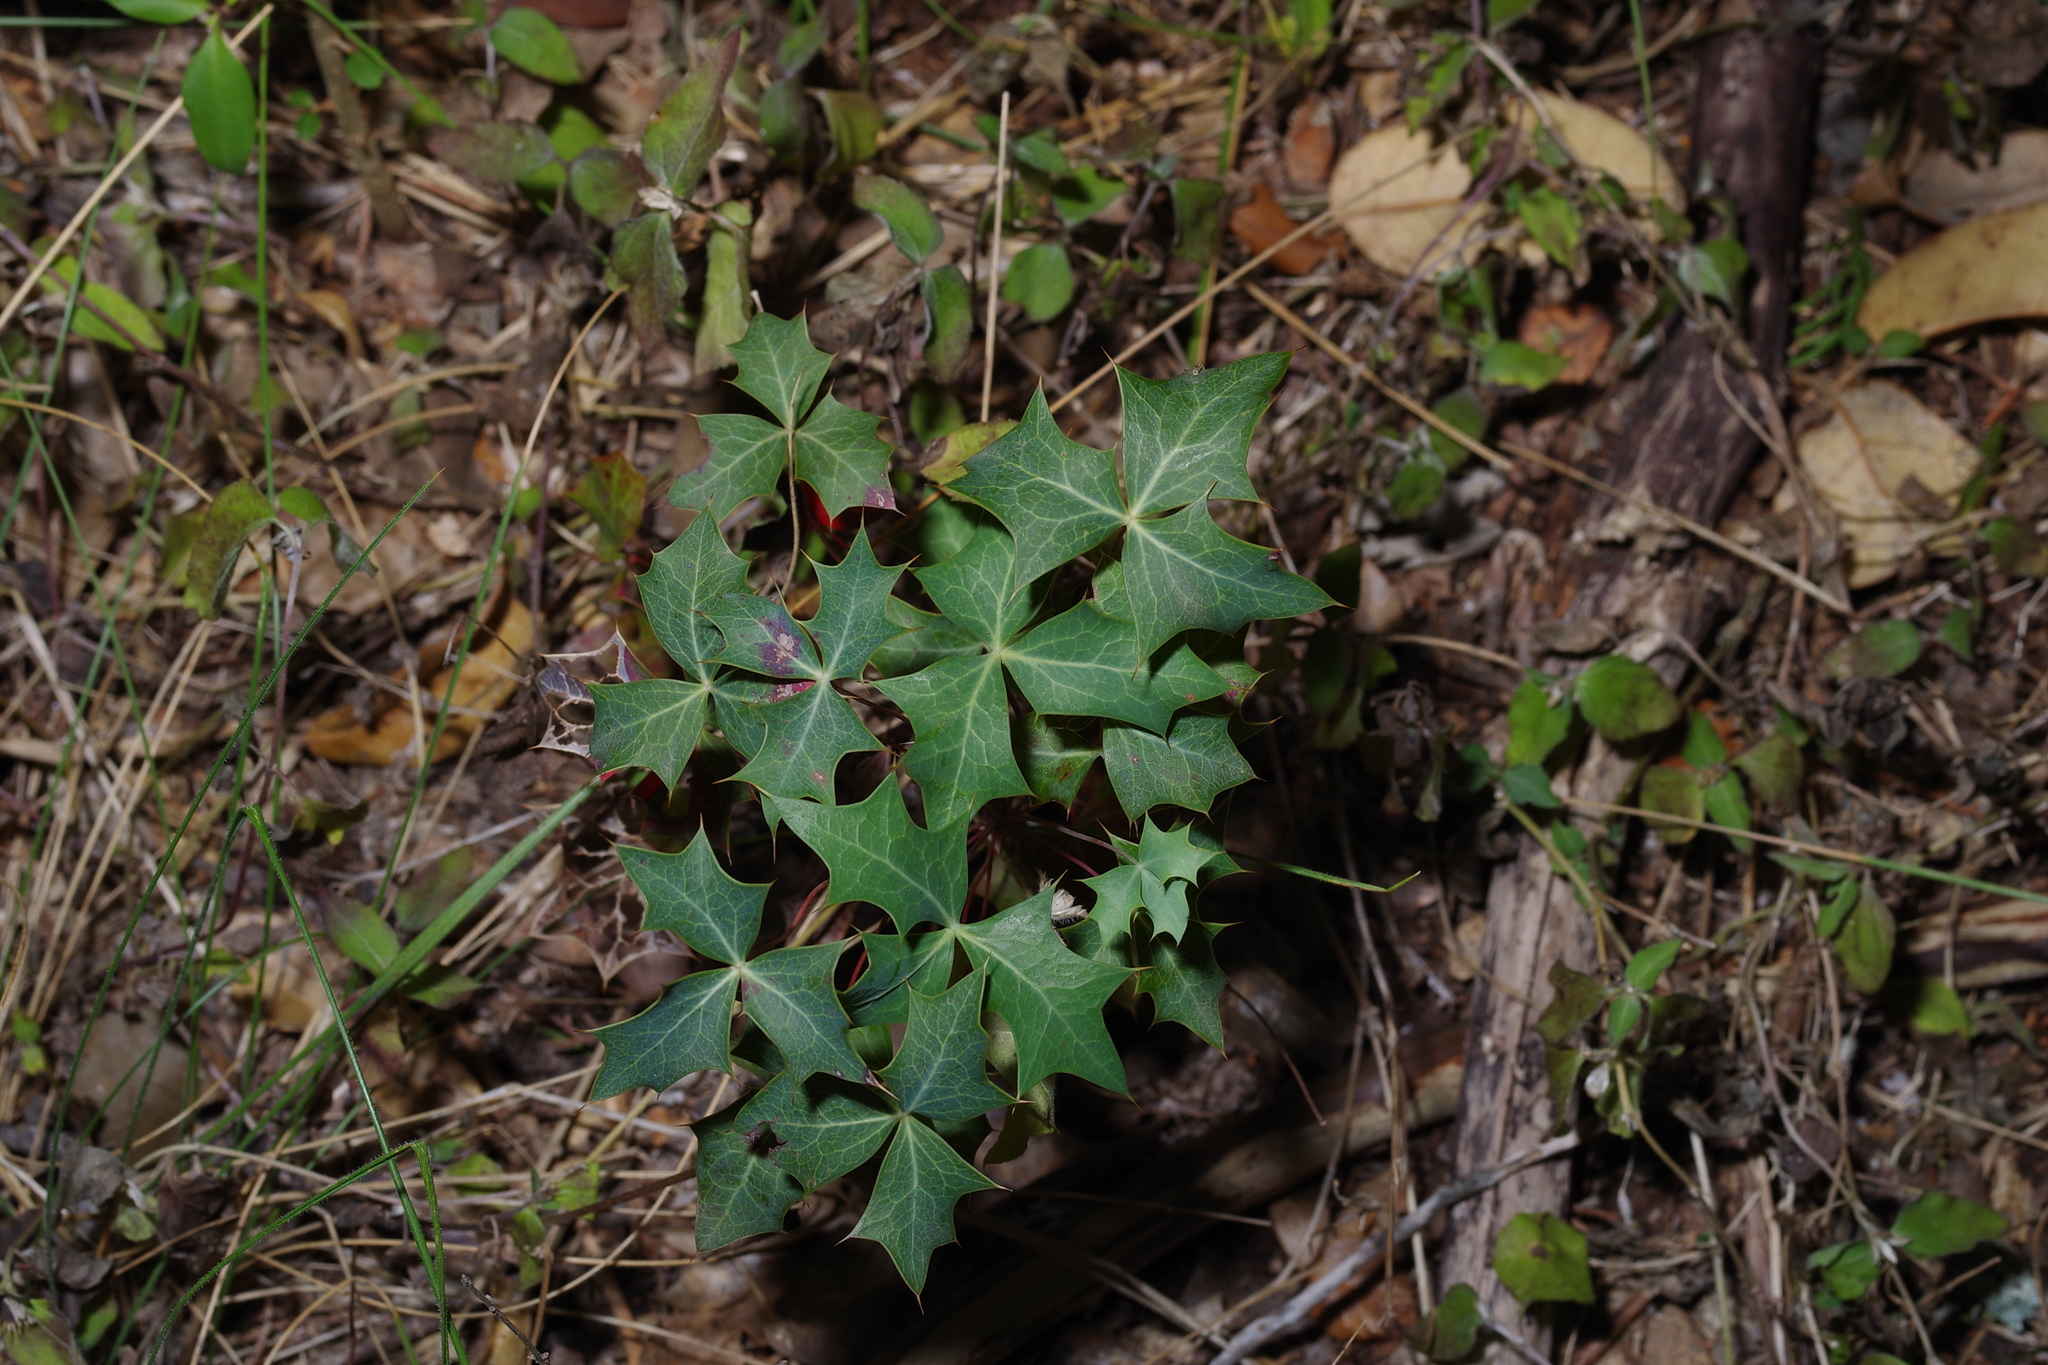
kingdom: Plantae
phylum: Tracheophyta
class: Magnoliopsida
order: Ranunculales
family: Berberidaceae
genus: Alloberberis
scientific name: Alloberberis trifoliolata
